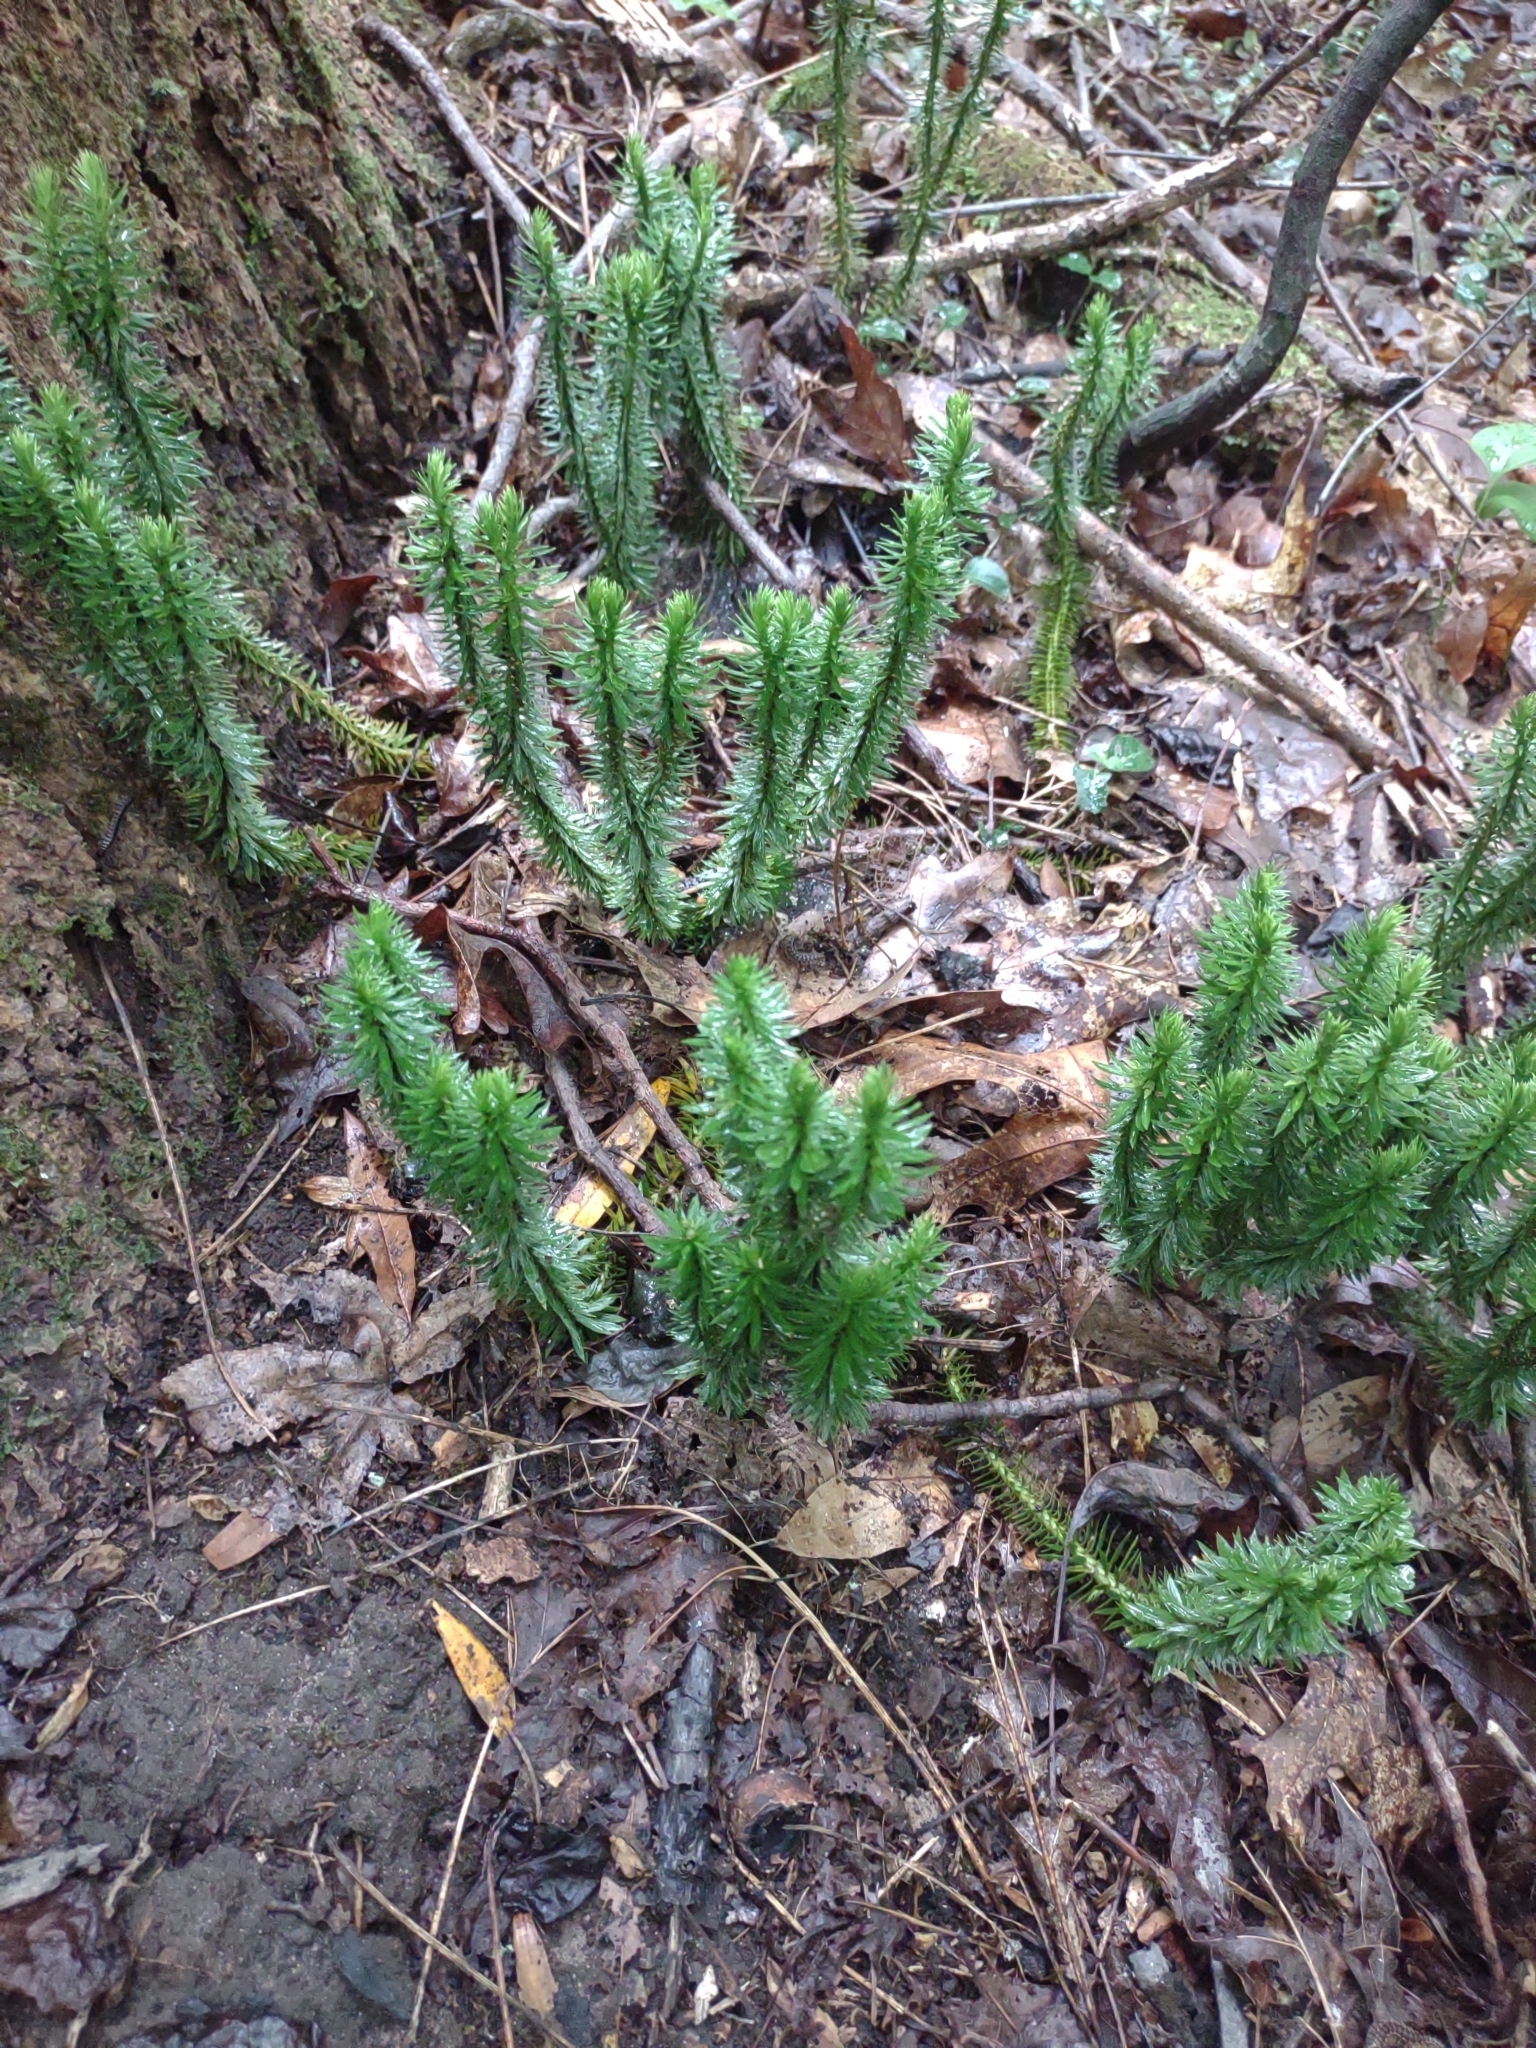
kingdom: Plantae
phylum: Tracheophyta
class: Lycopodiopsida
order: Lycopodiales
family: Lycopodiaceae
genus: Huperzia
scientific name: Huperzia lucidula
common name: Shining clubmoss
